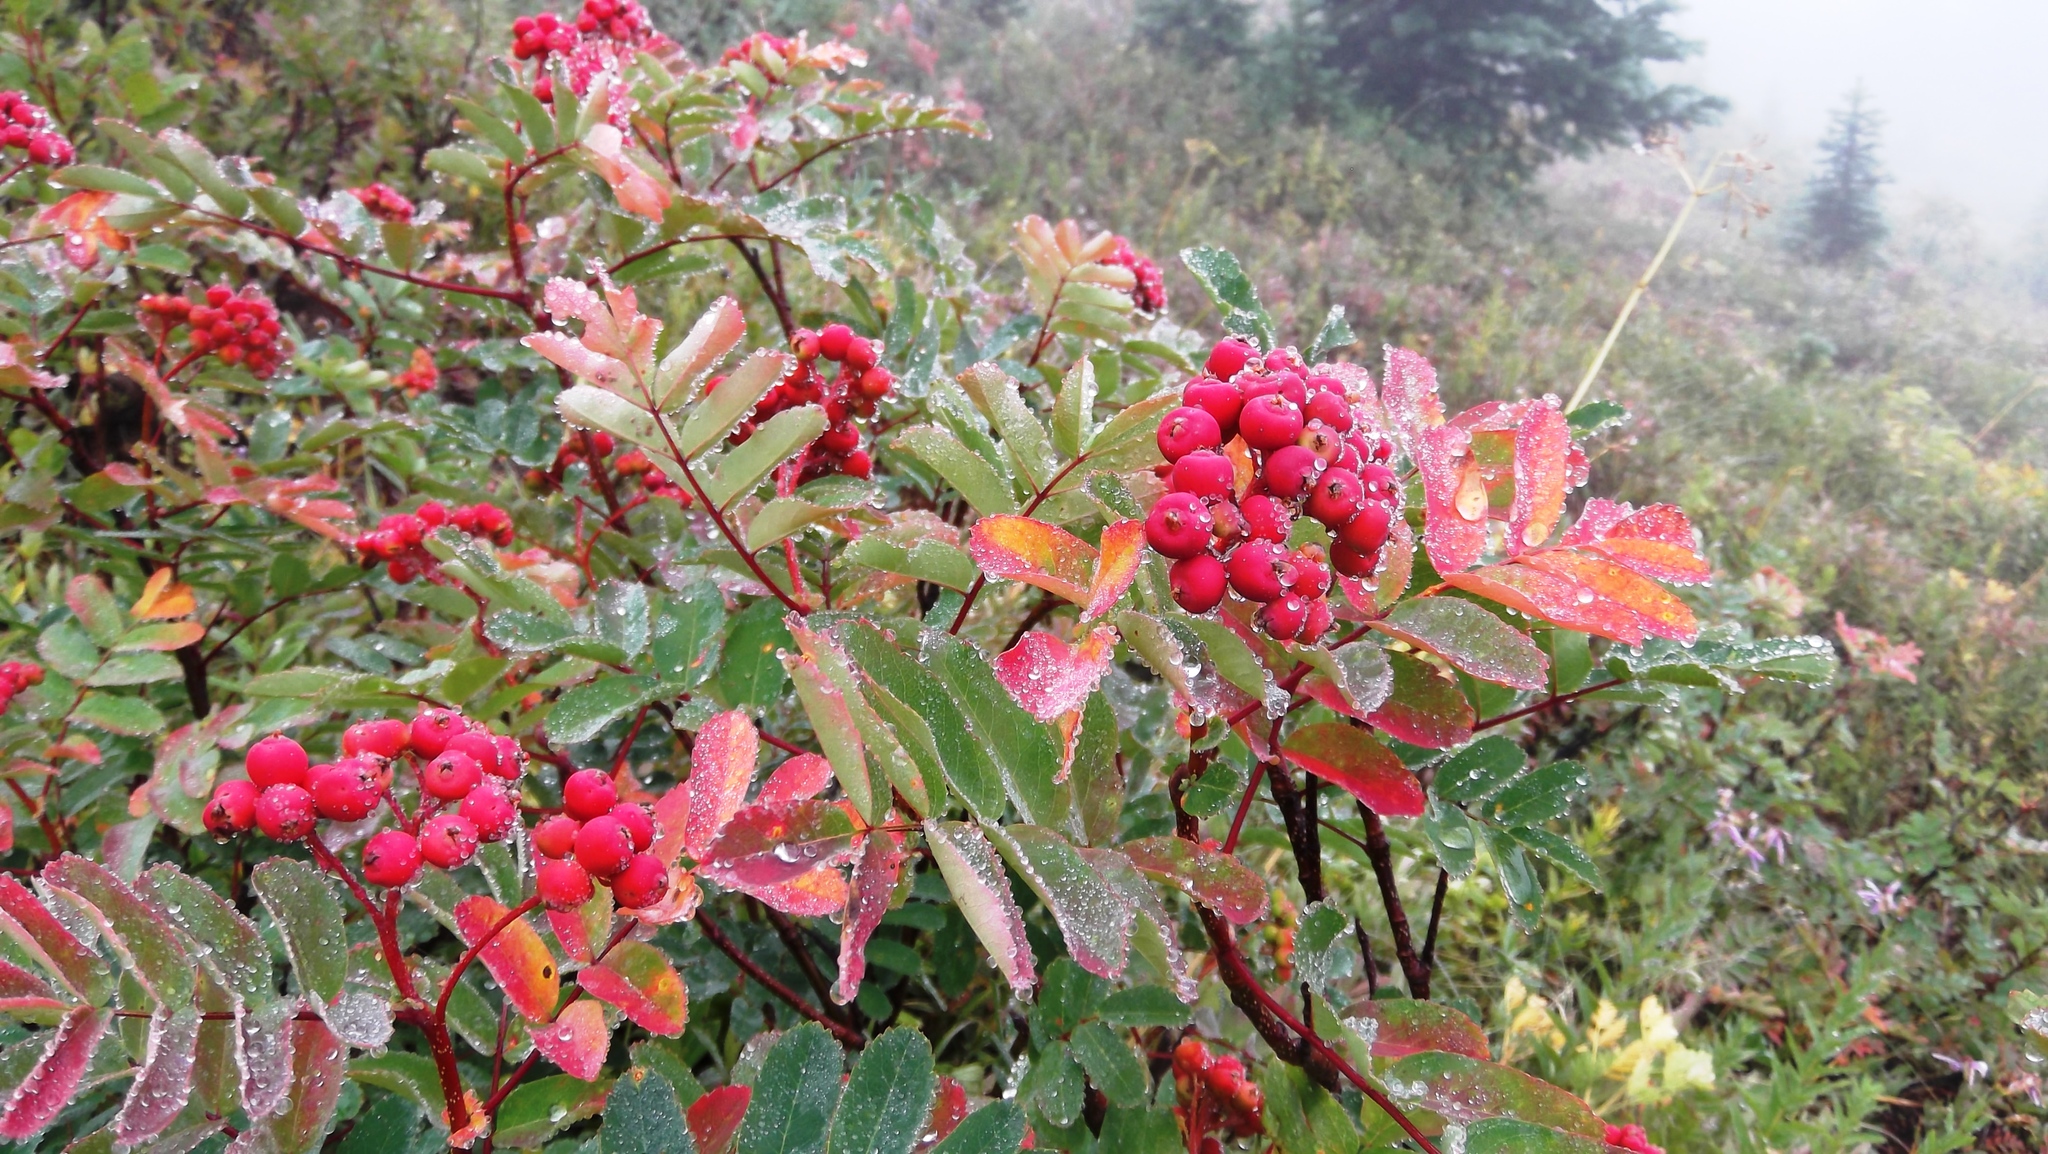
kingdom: Plantae
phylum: Tracheophyta
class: Magnoliopsida
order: Rosales
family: Rosaceae
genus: Sorbus
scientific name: Sorbus sitchensis
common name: Sitka mountain-ash
